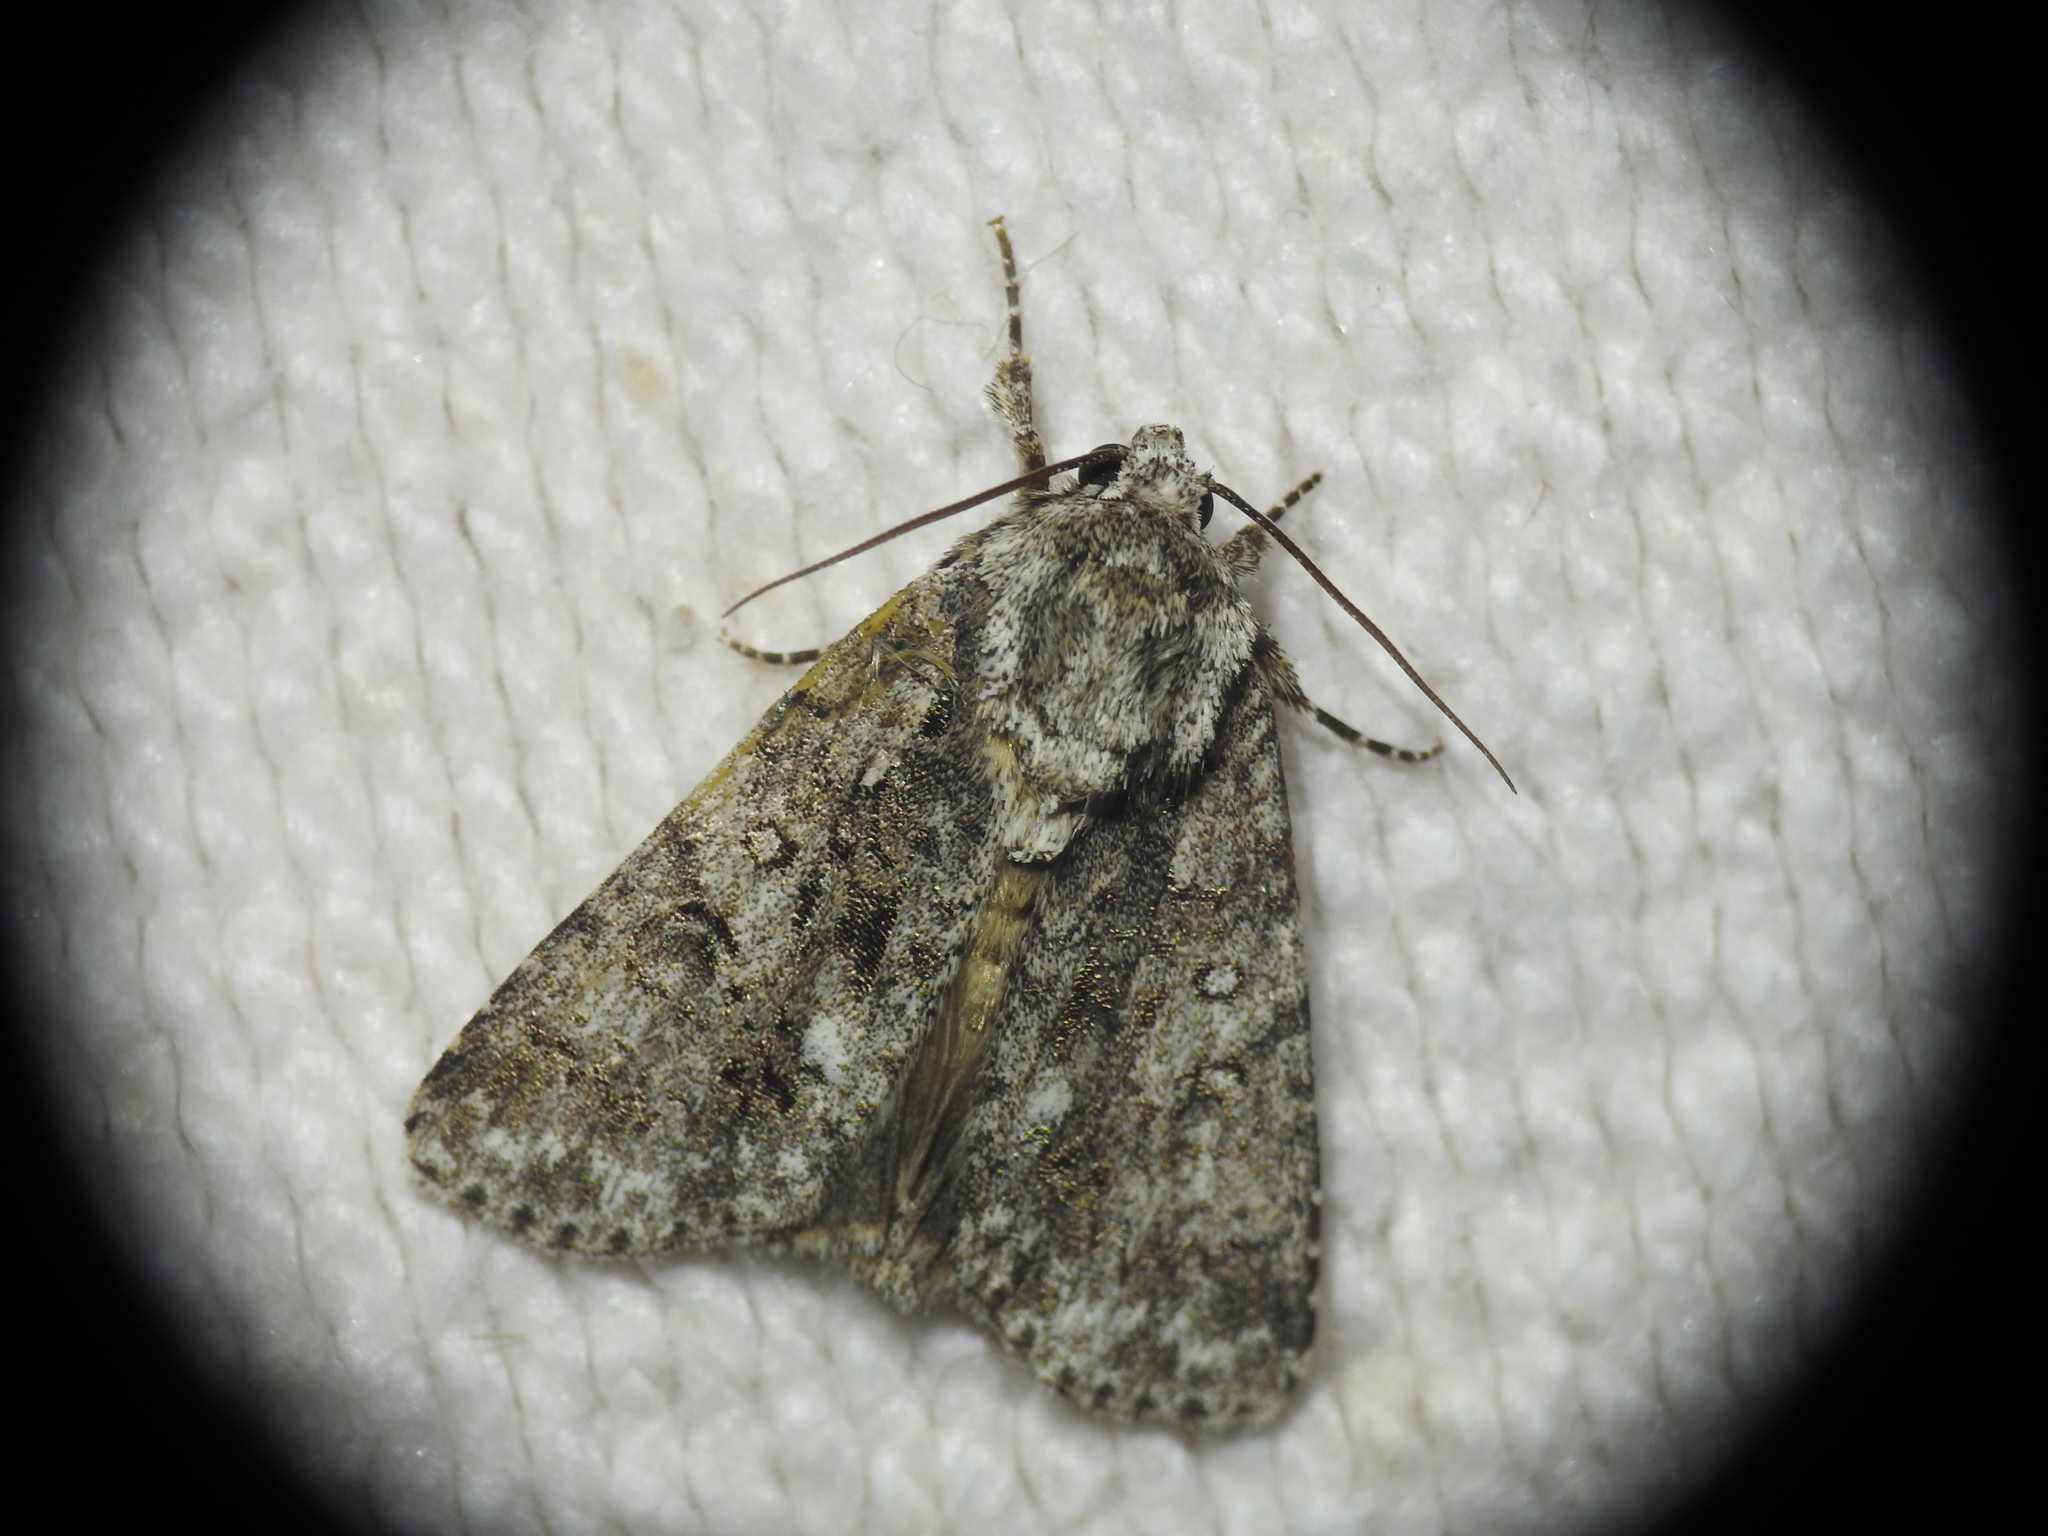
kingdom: Animalia
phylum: Arthropoda
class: Insecta
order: Lepidoptera
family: Noctuidae
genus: Acronicta
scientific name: Acronicta rumicis
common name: Knot grass
